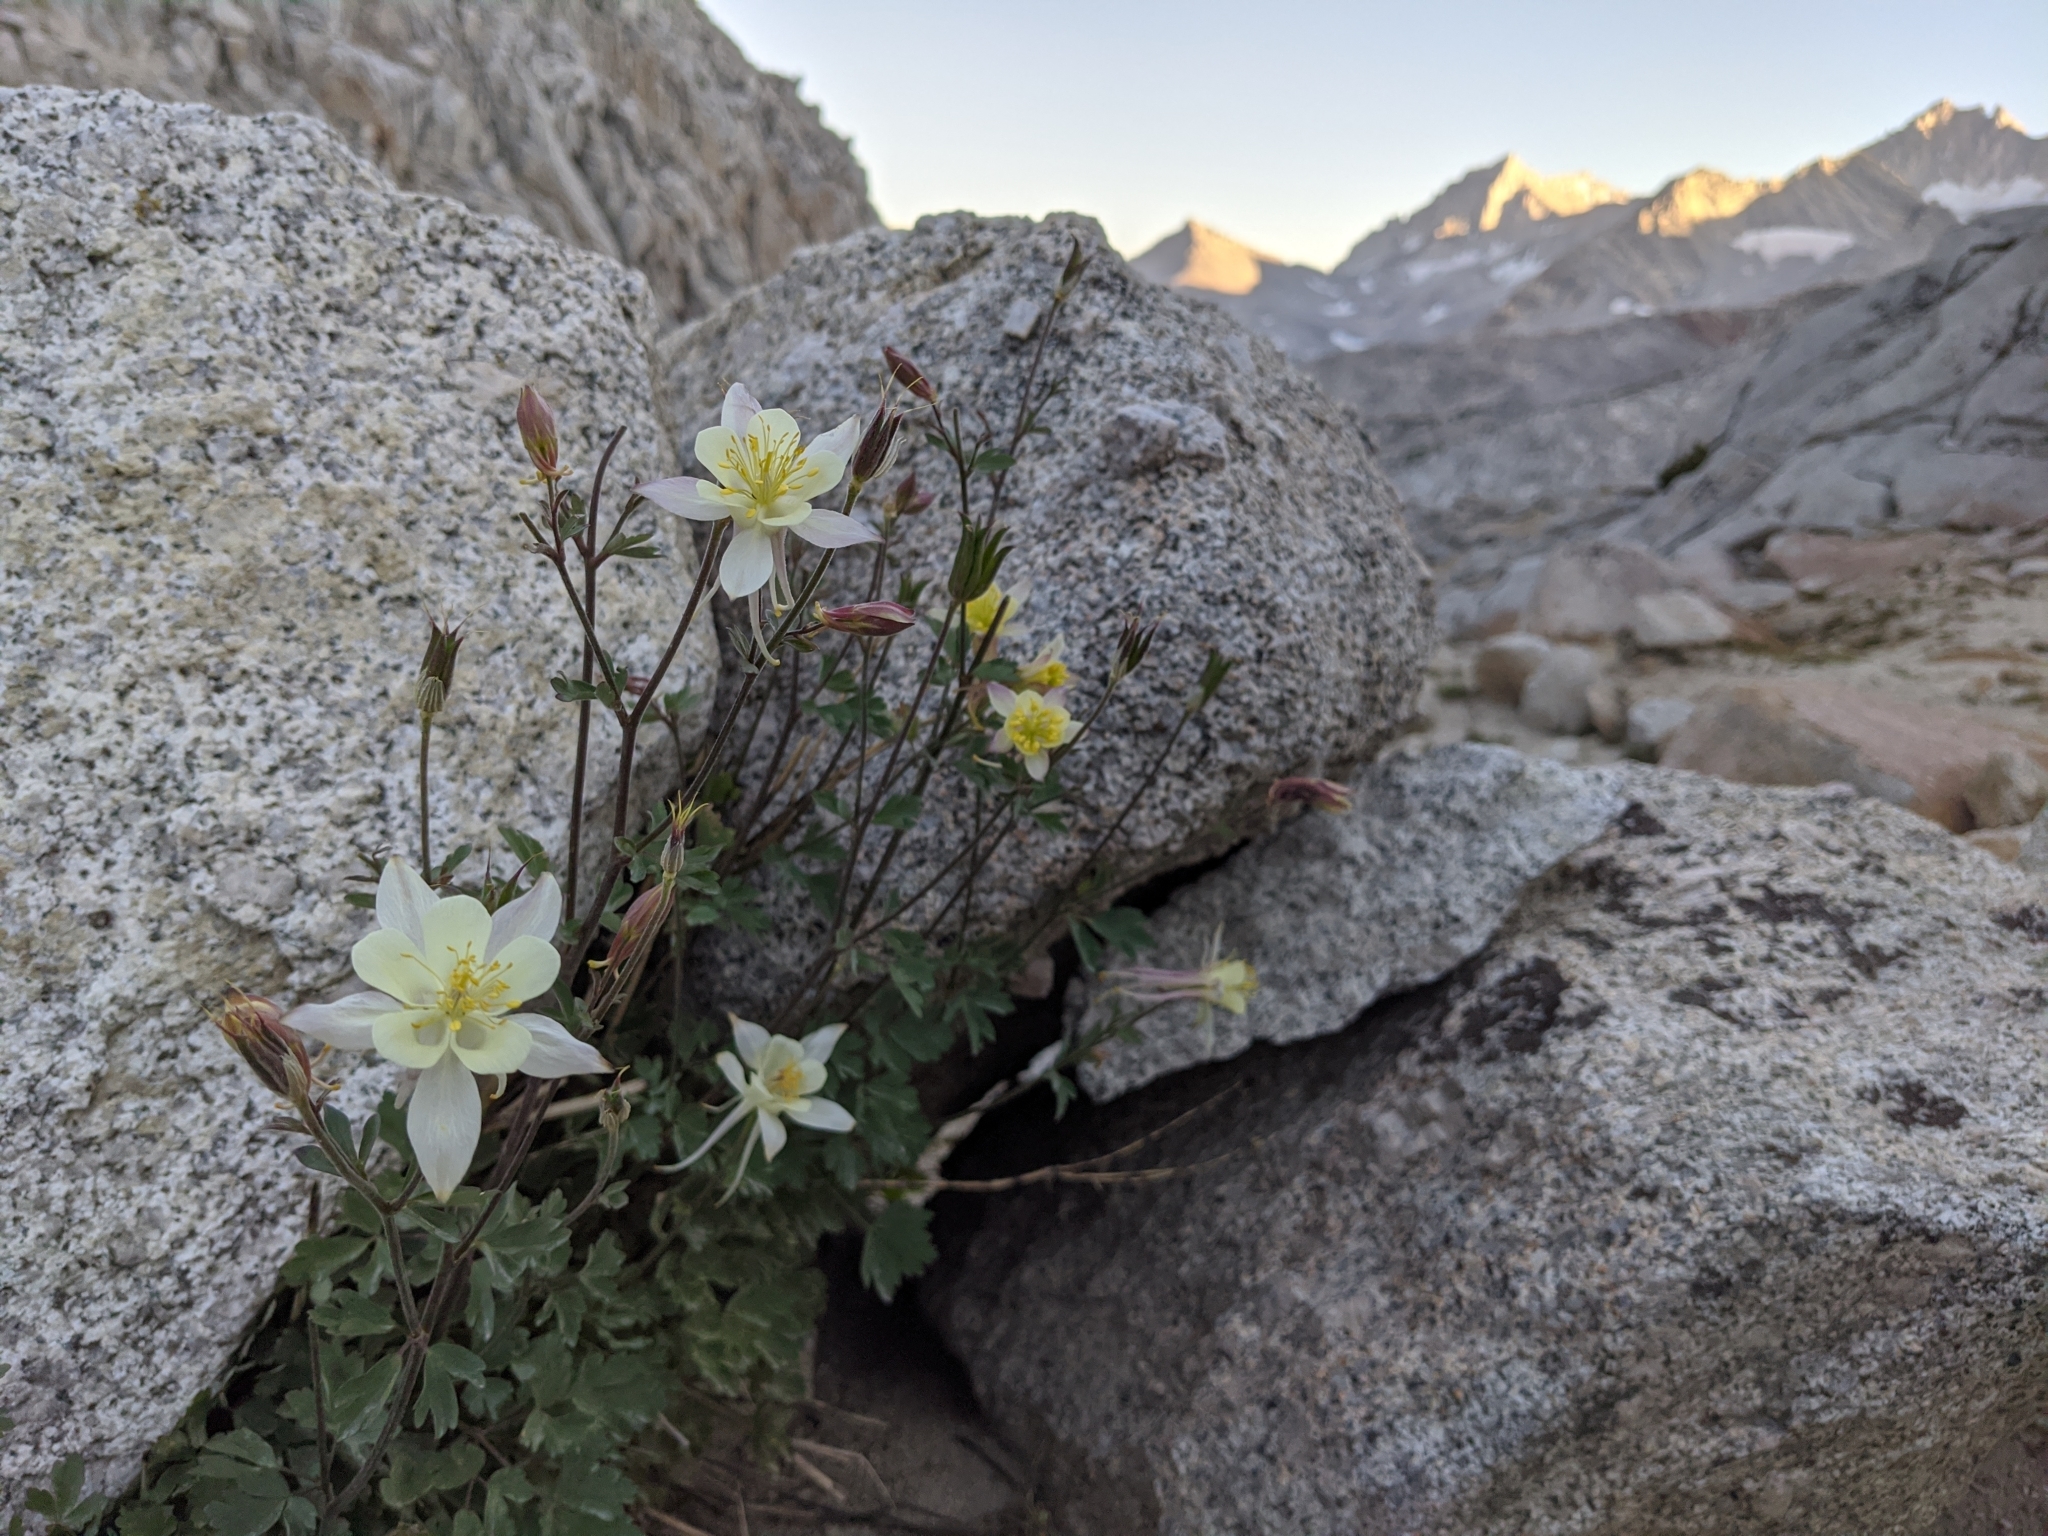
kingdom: Plantae
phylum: Tracheophyta
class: Magnoliopsida
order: Ranunculales
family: Ranunculaceae
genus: Aquilegia
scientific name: Aquilegia pubescens
